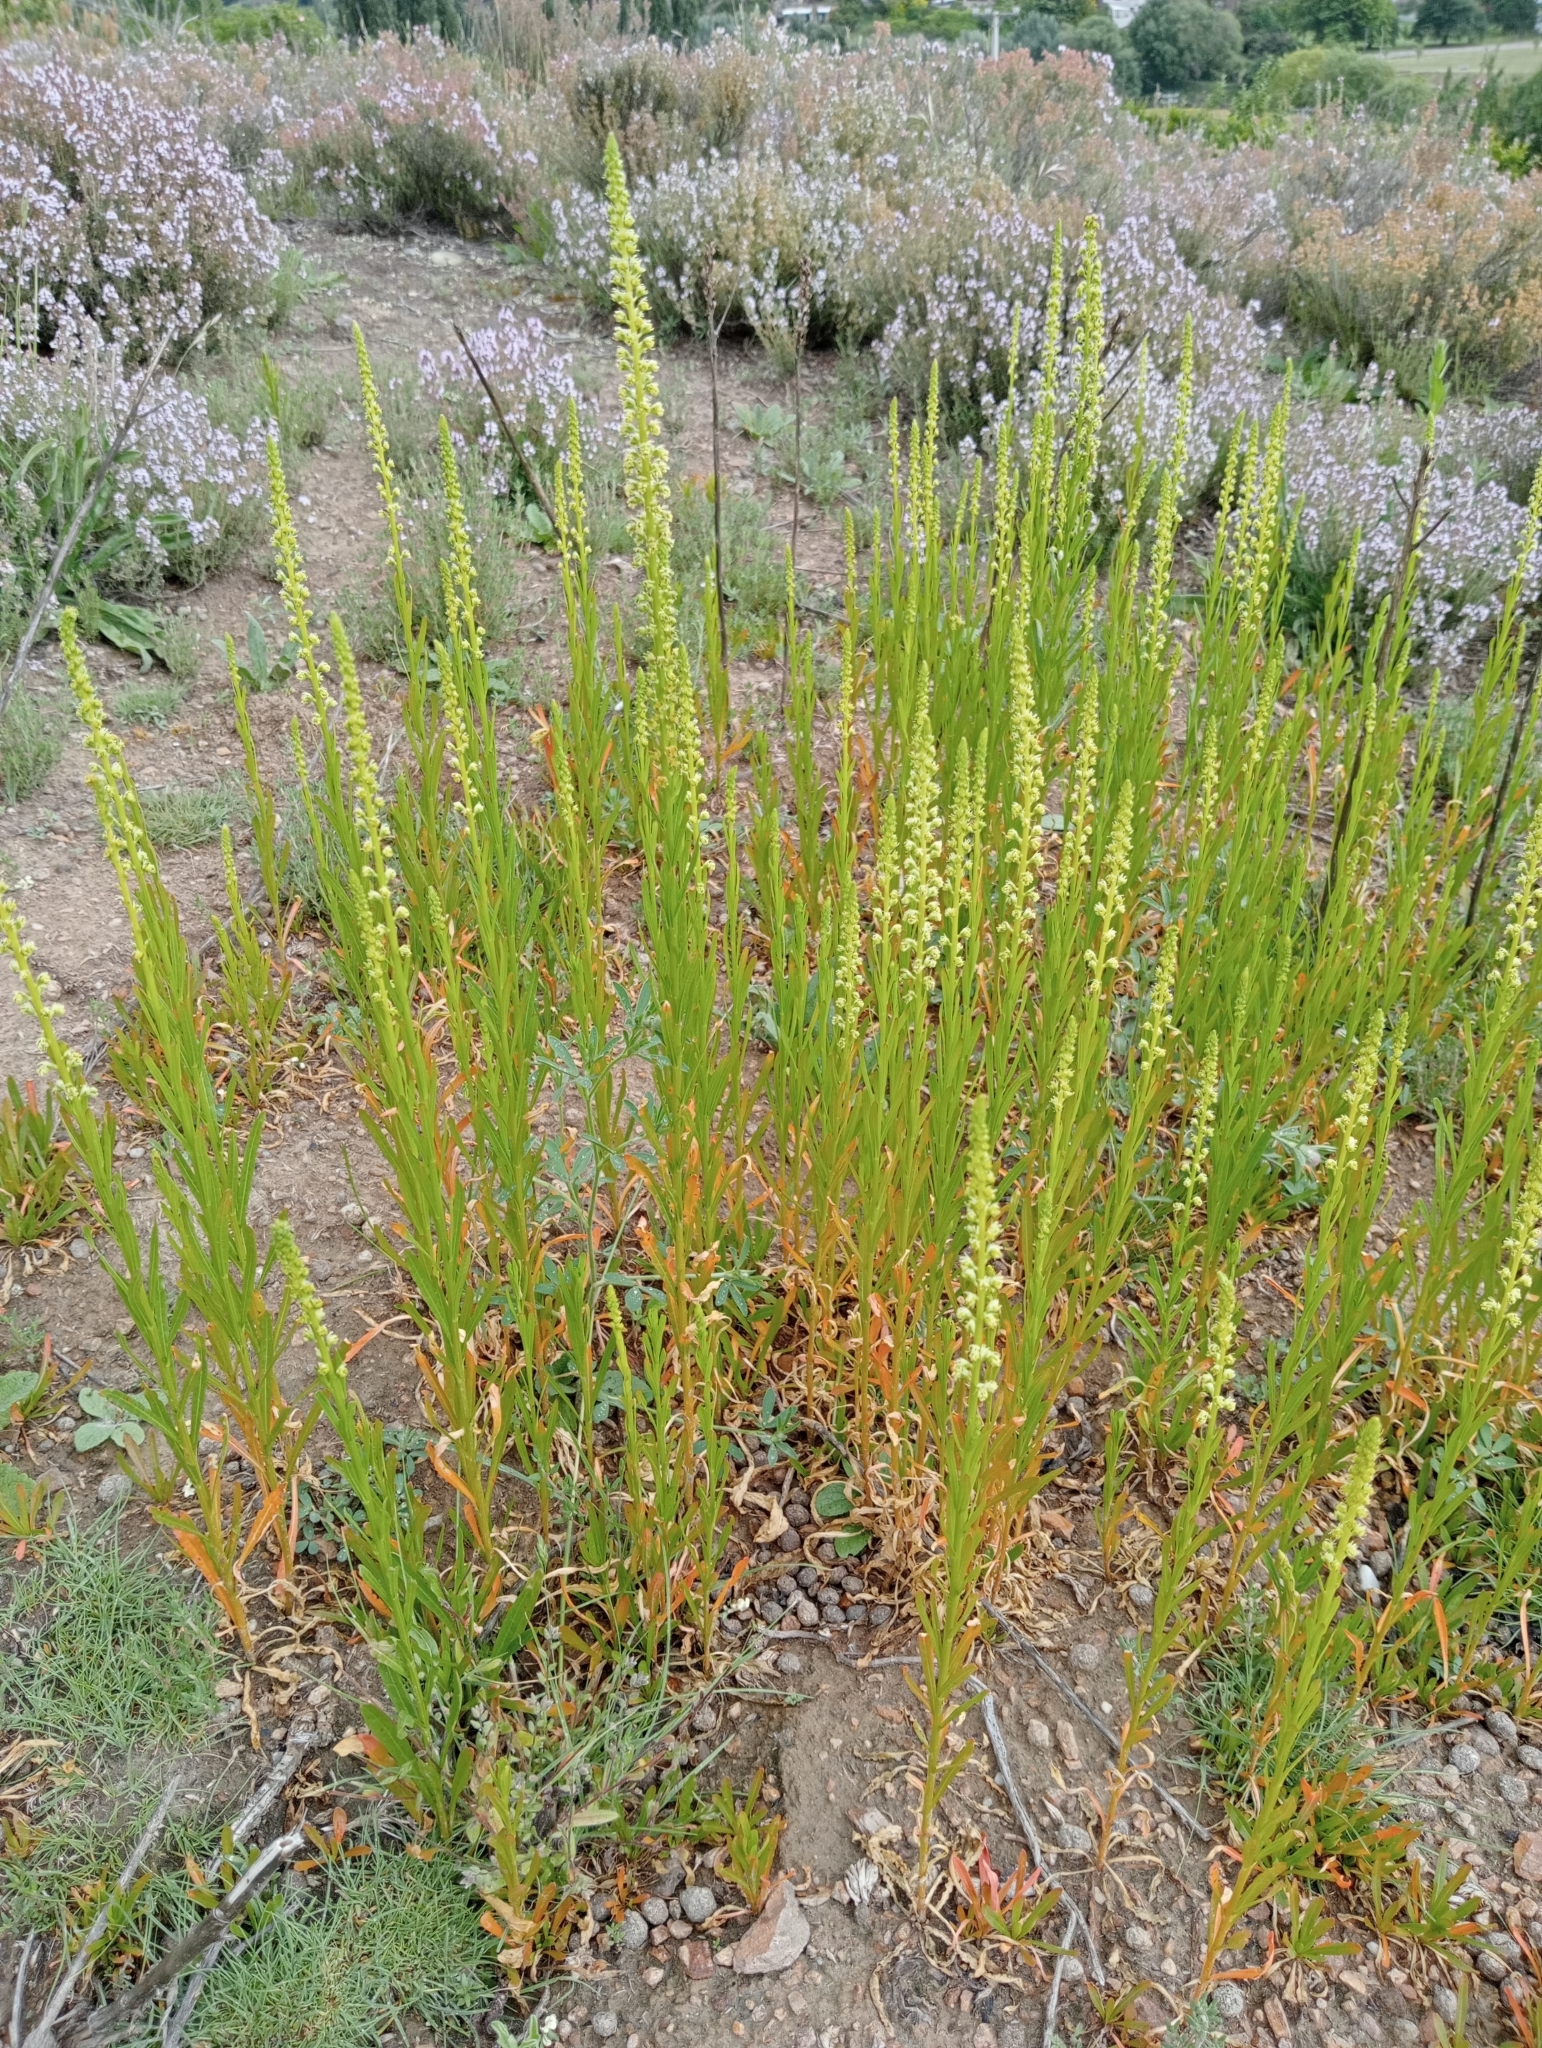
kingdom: Plantae
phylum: Tracheophyta
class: Magnoliopsida
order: Brassicales
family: Resedaceae
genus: Reseda
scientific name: Reseda luteola
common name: Weld
